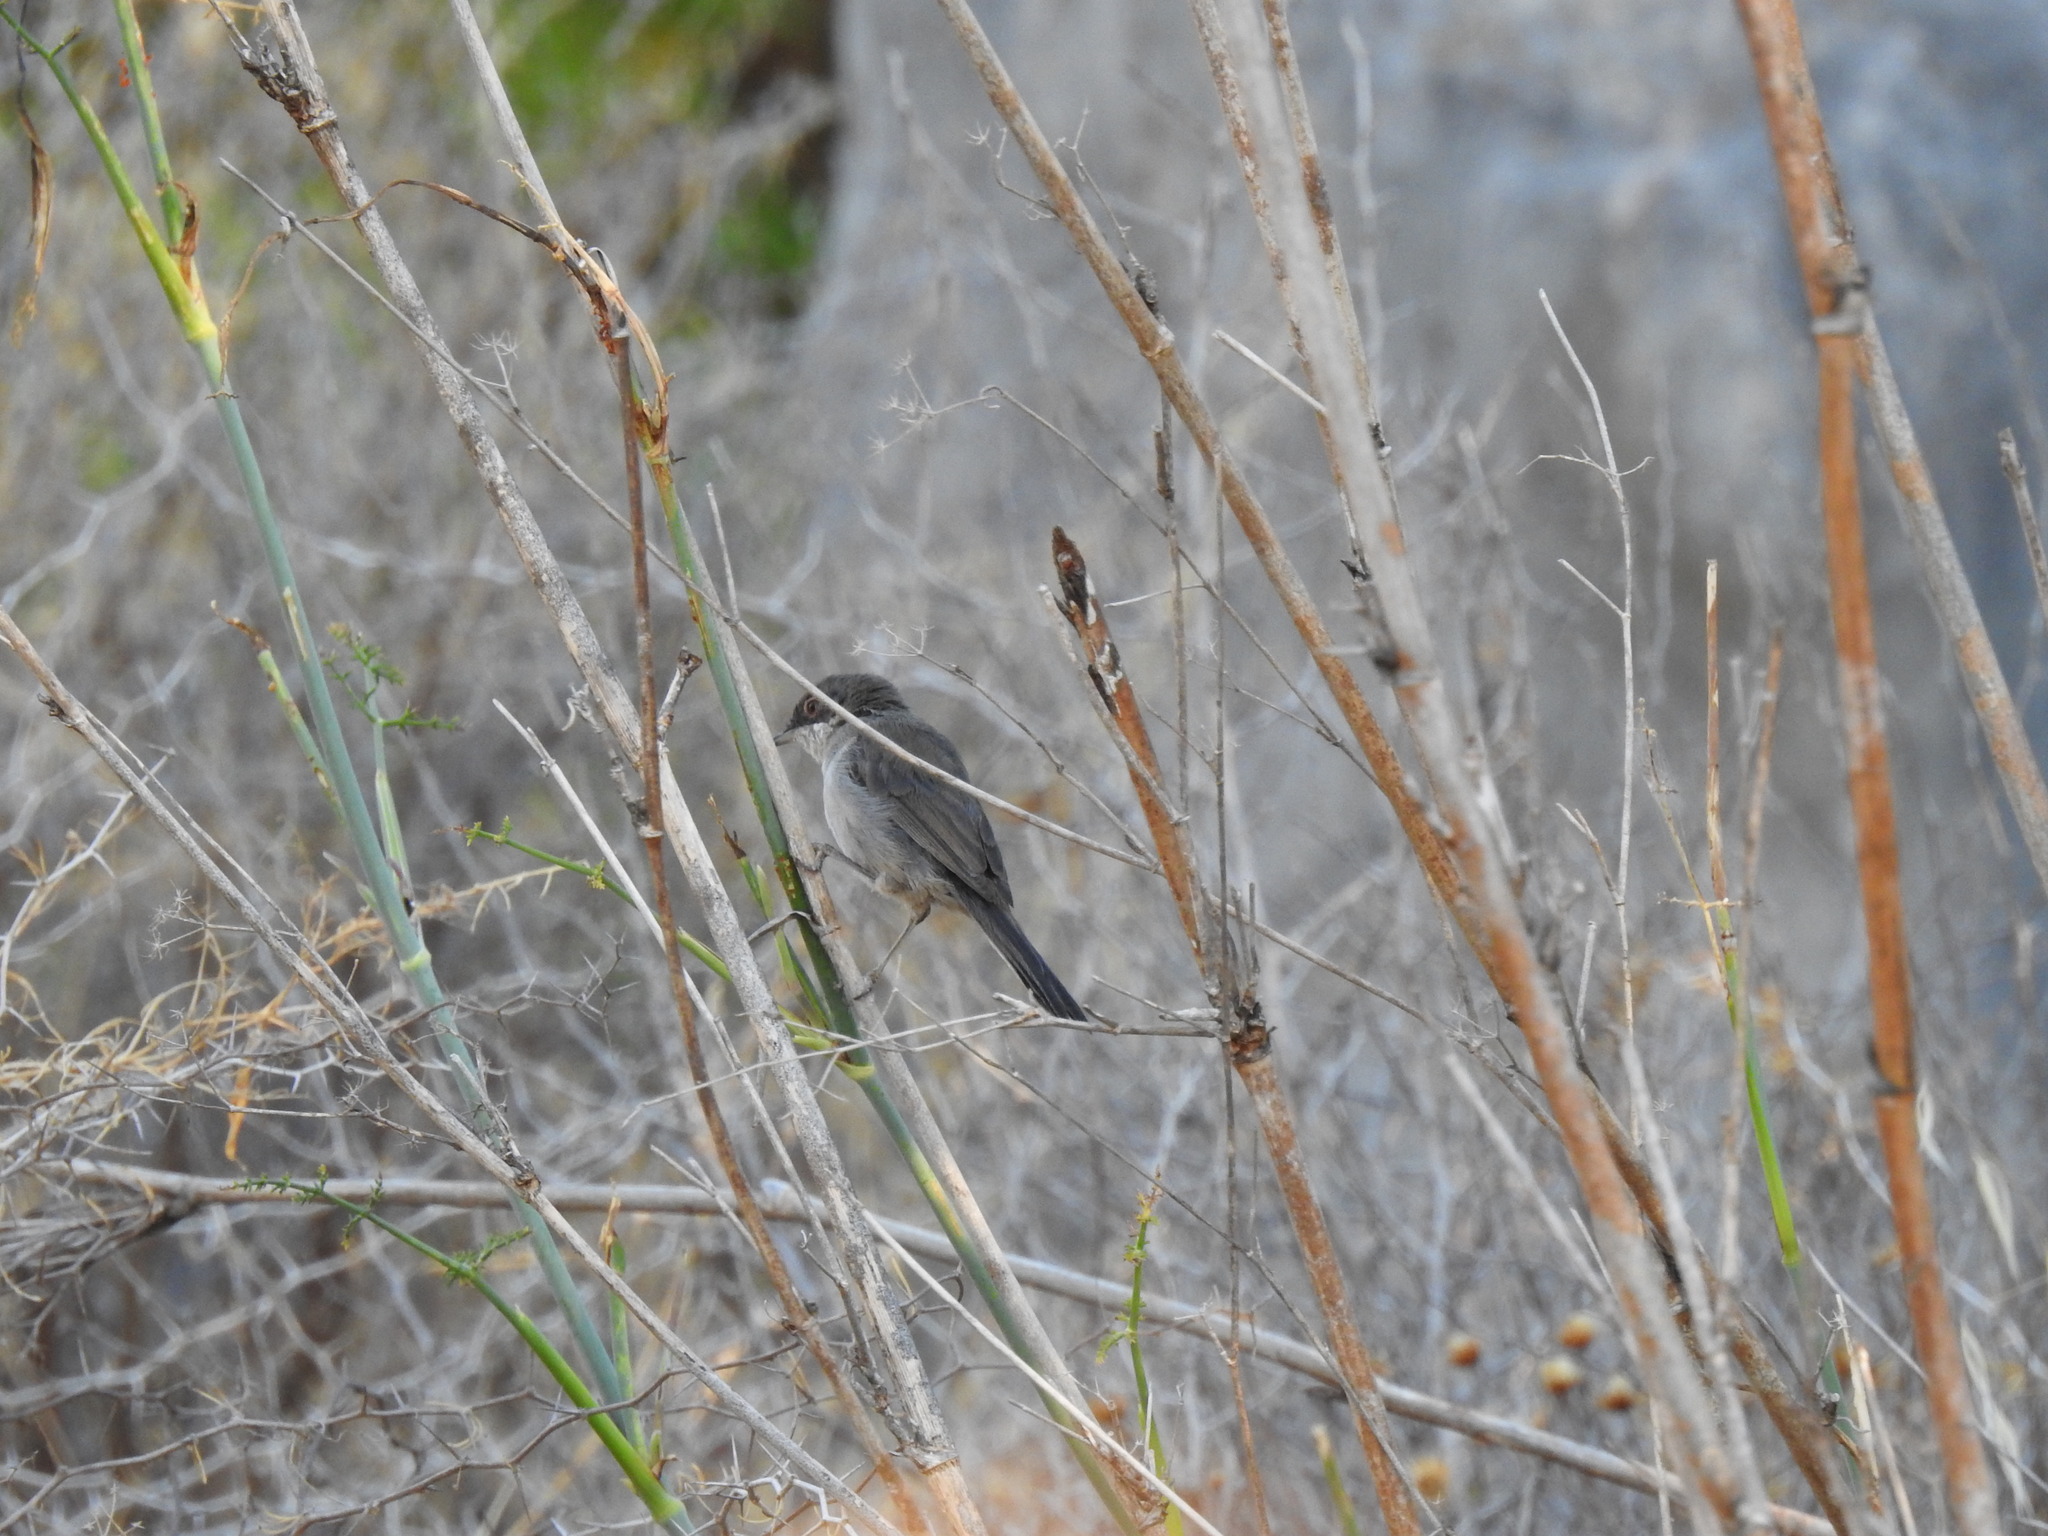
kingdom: Animalia
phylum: Chordata
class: Aves
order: Passeriformes
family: Sylviidae
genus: Curruca
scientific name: Curruca melanocephala
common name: Sardinian warbler
